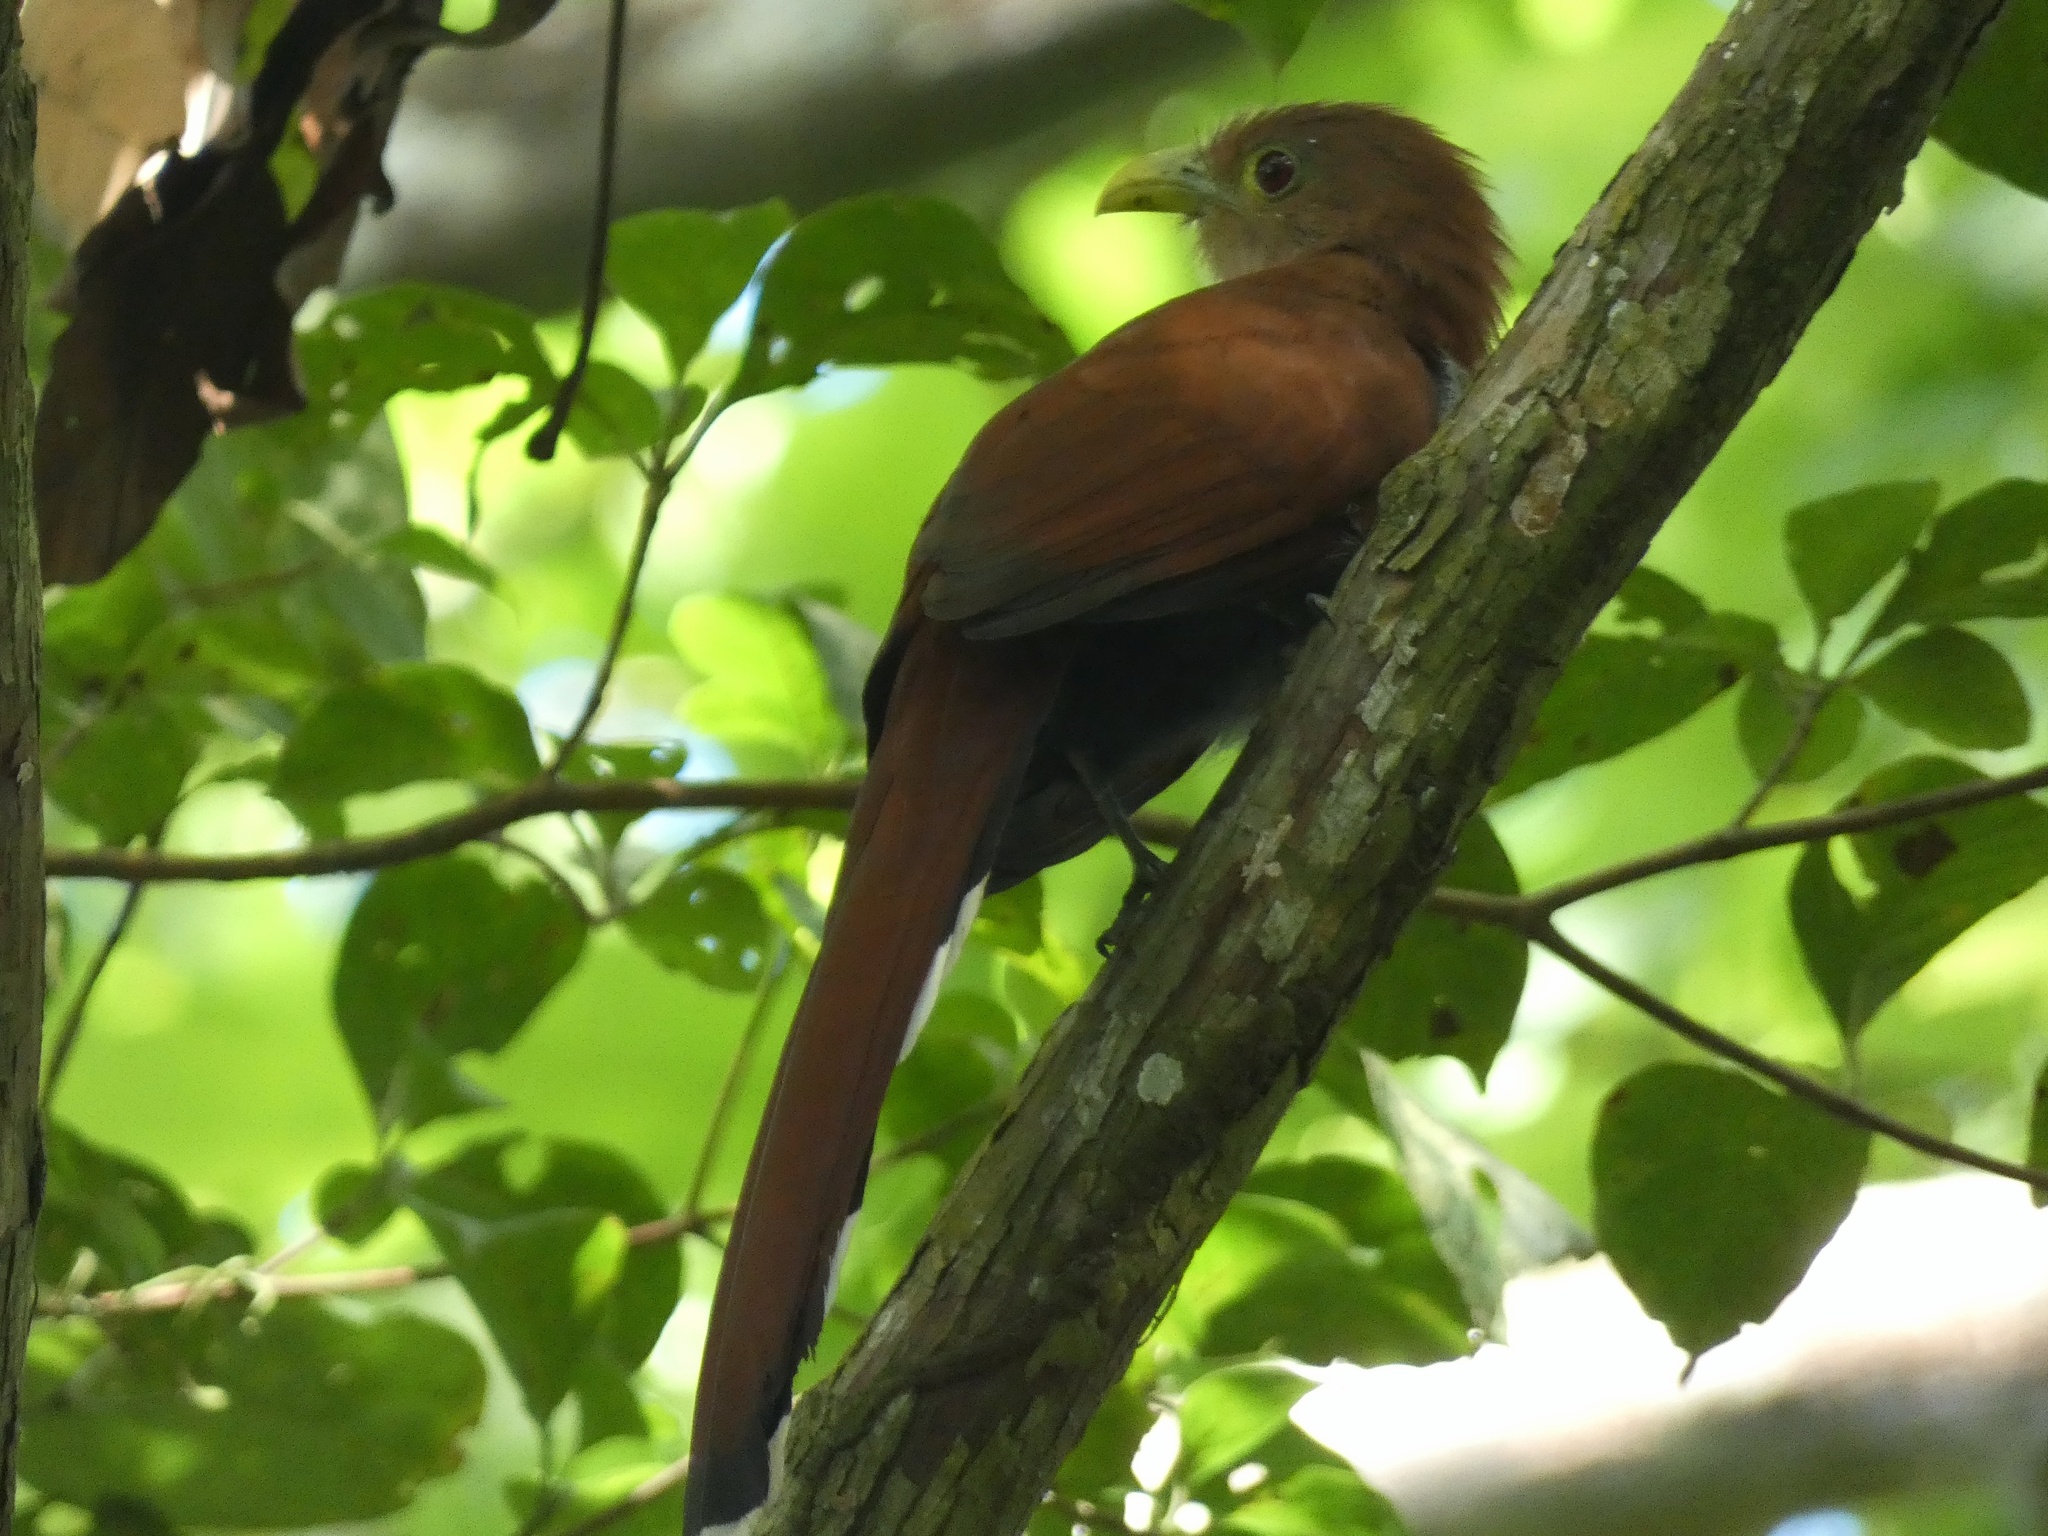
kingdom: Animalia
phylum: Chordata
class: Aves
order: Cuculiformes
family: Cuculidae
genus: Piaya
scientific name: Piaya cayana
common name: Squirrel cuckoo
